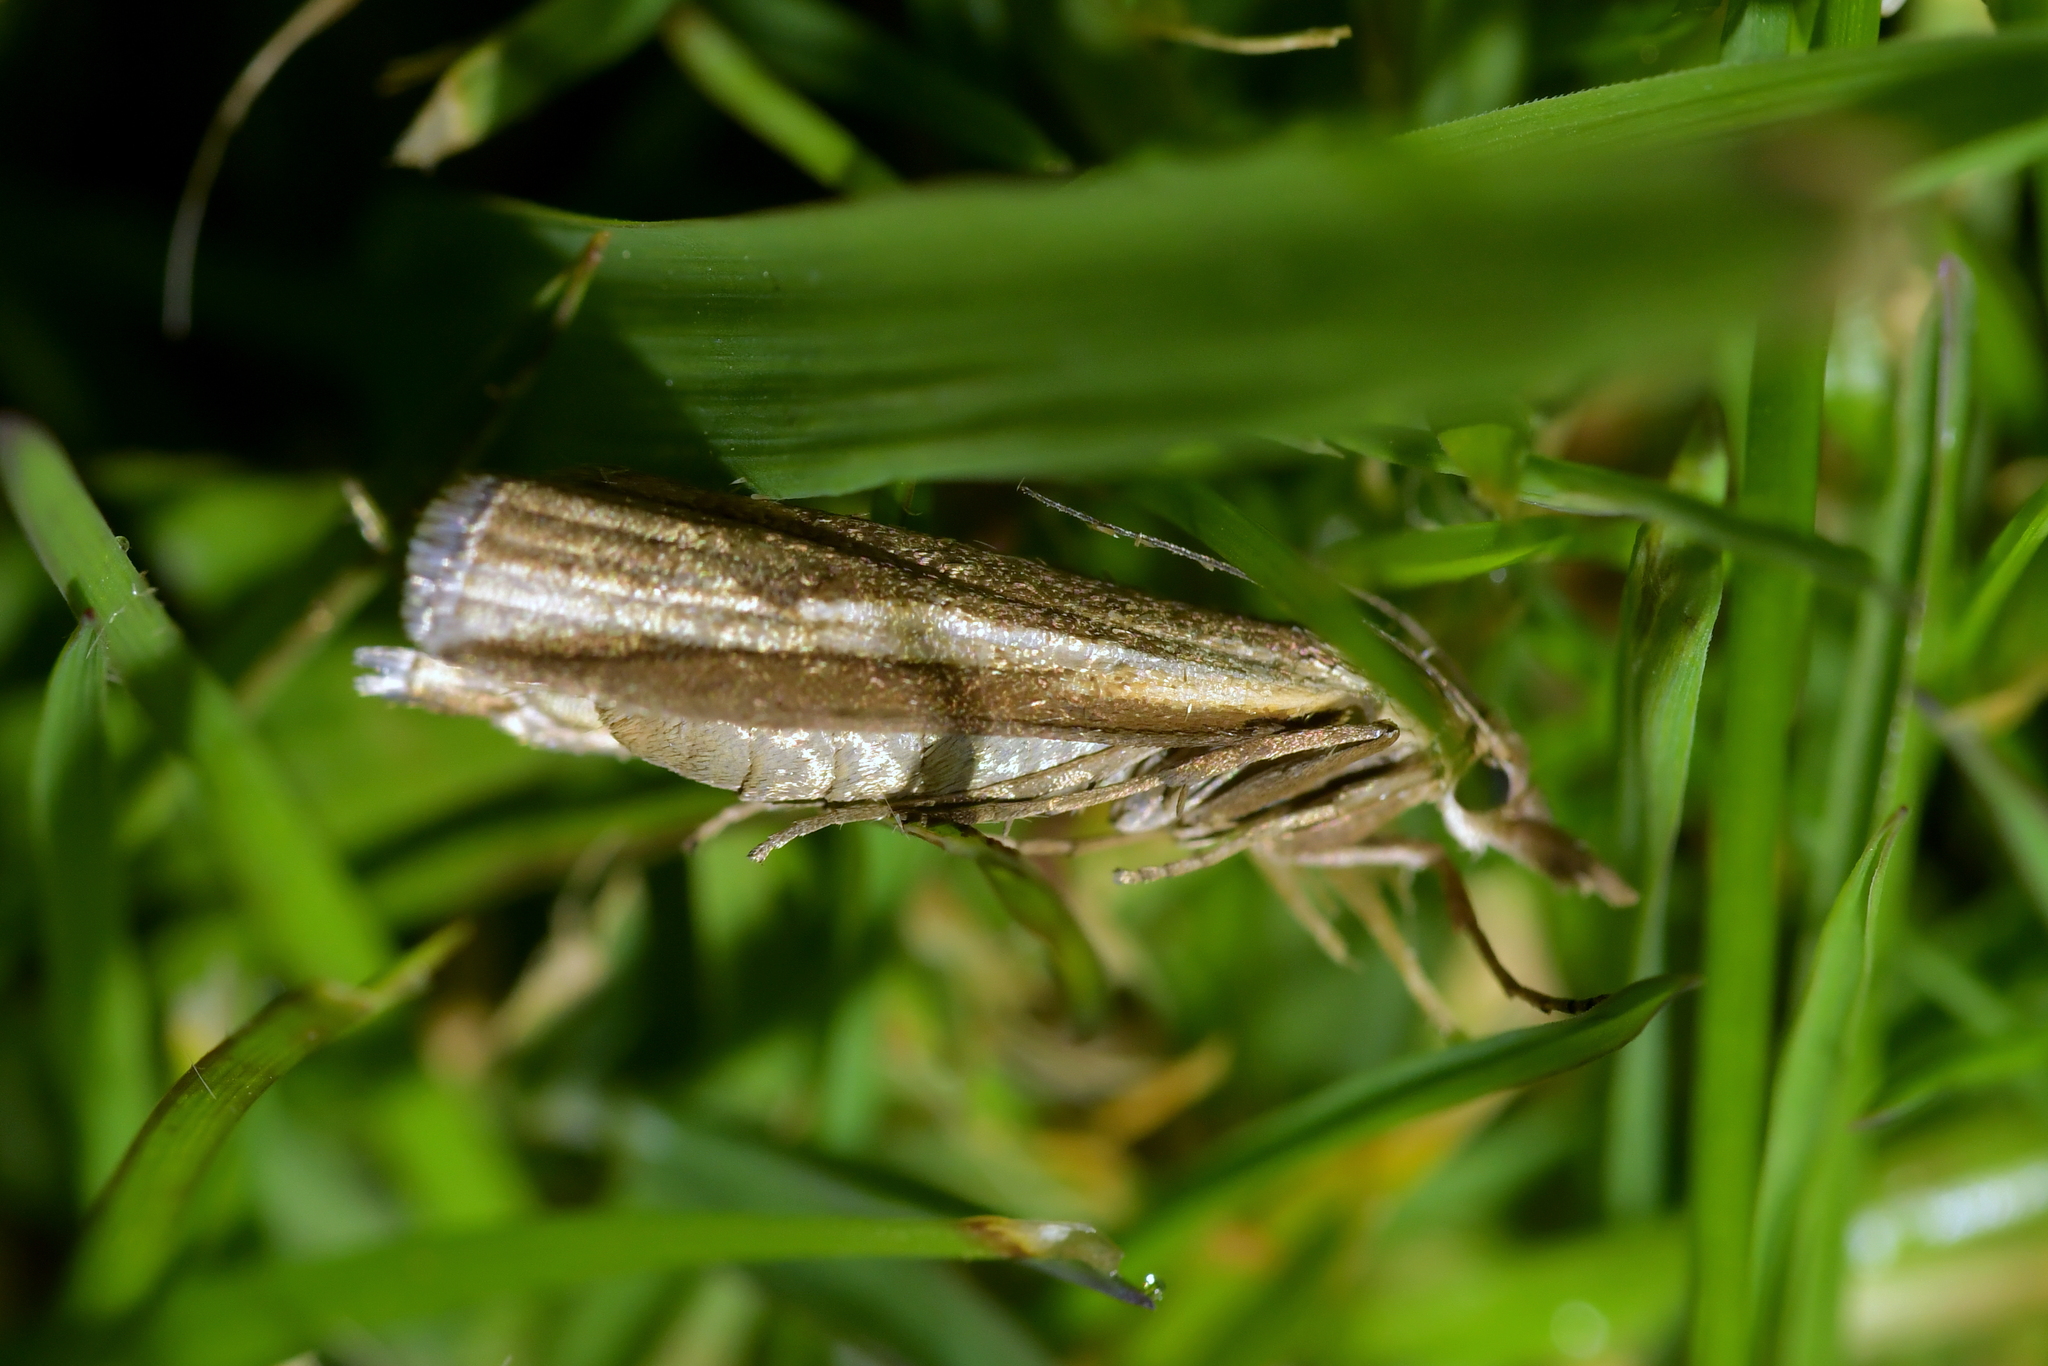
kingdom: Animalia
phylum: Arthropoda
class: Insecta
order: Lepidoptera
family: Crambidae
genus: Orocrambus
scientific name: Orocrambus horistes
